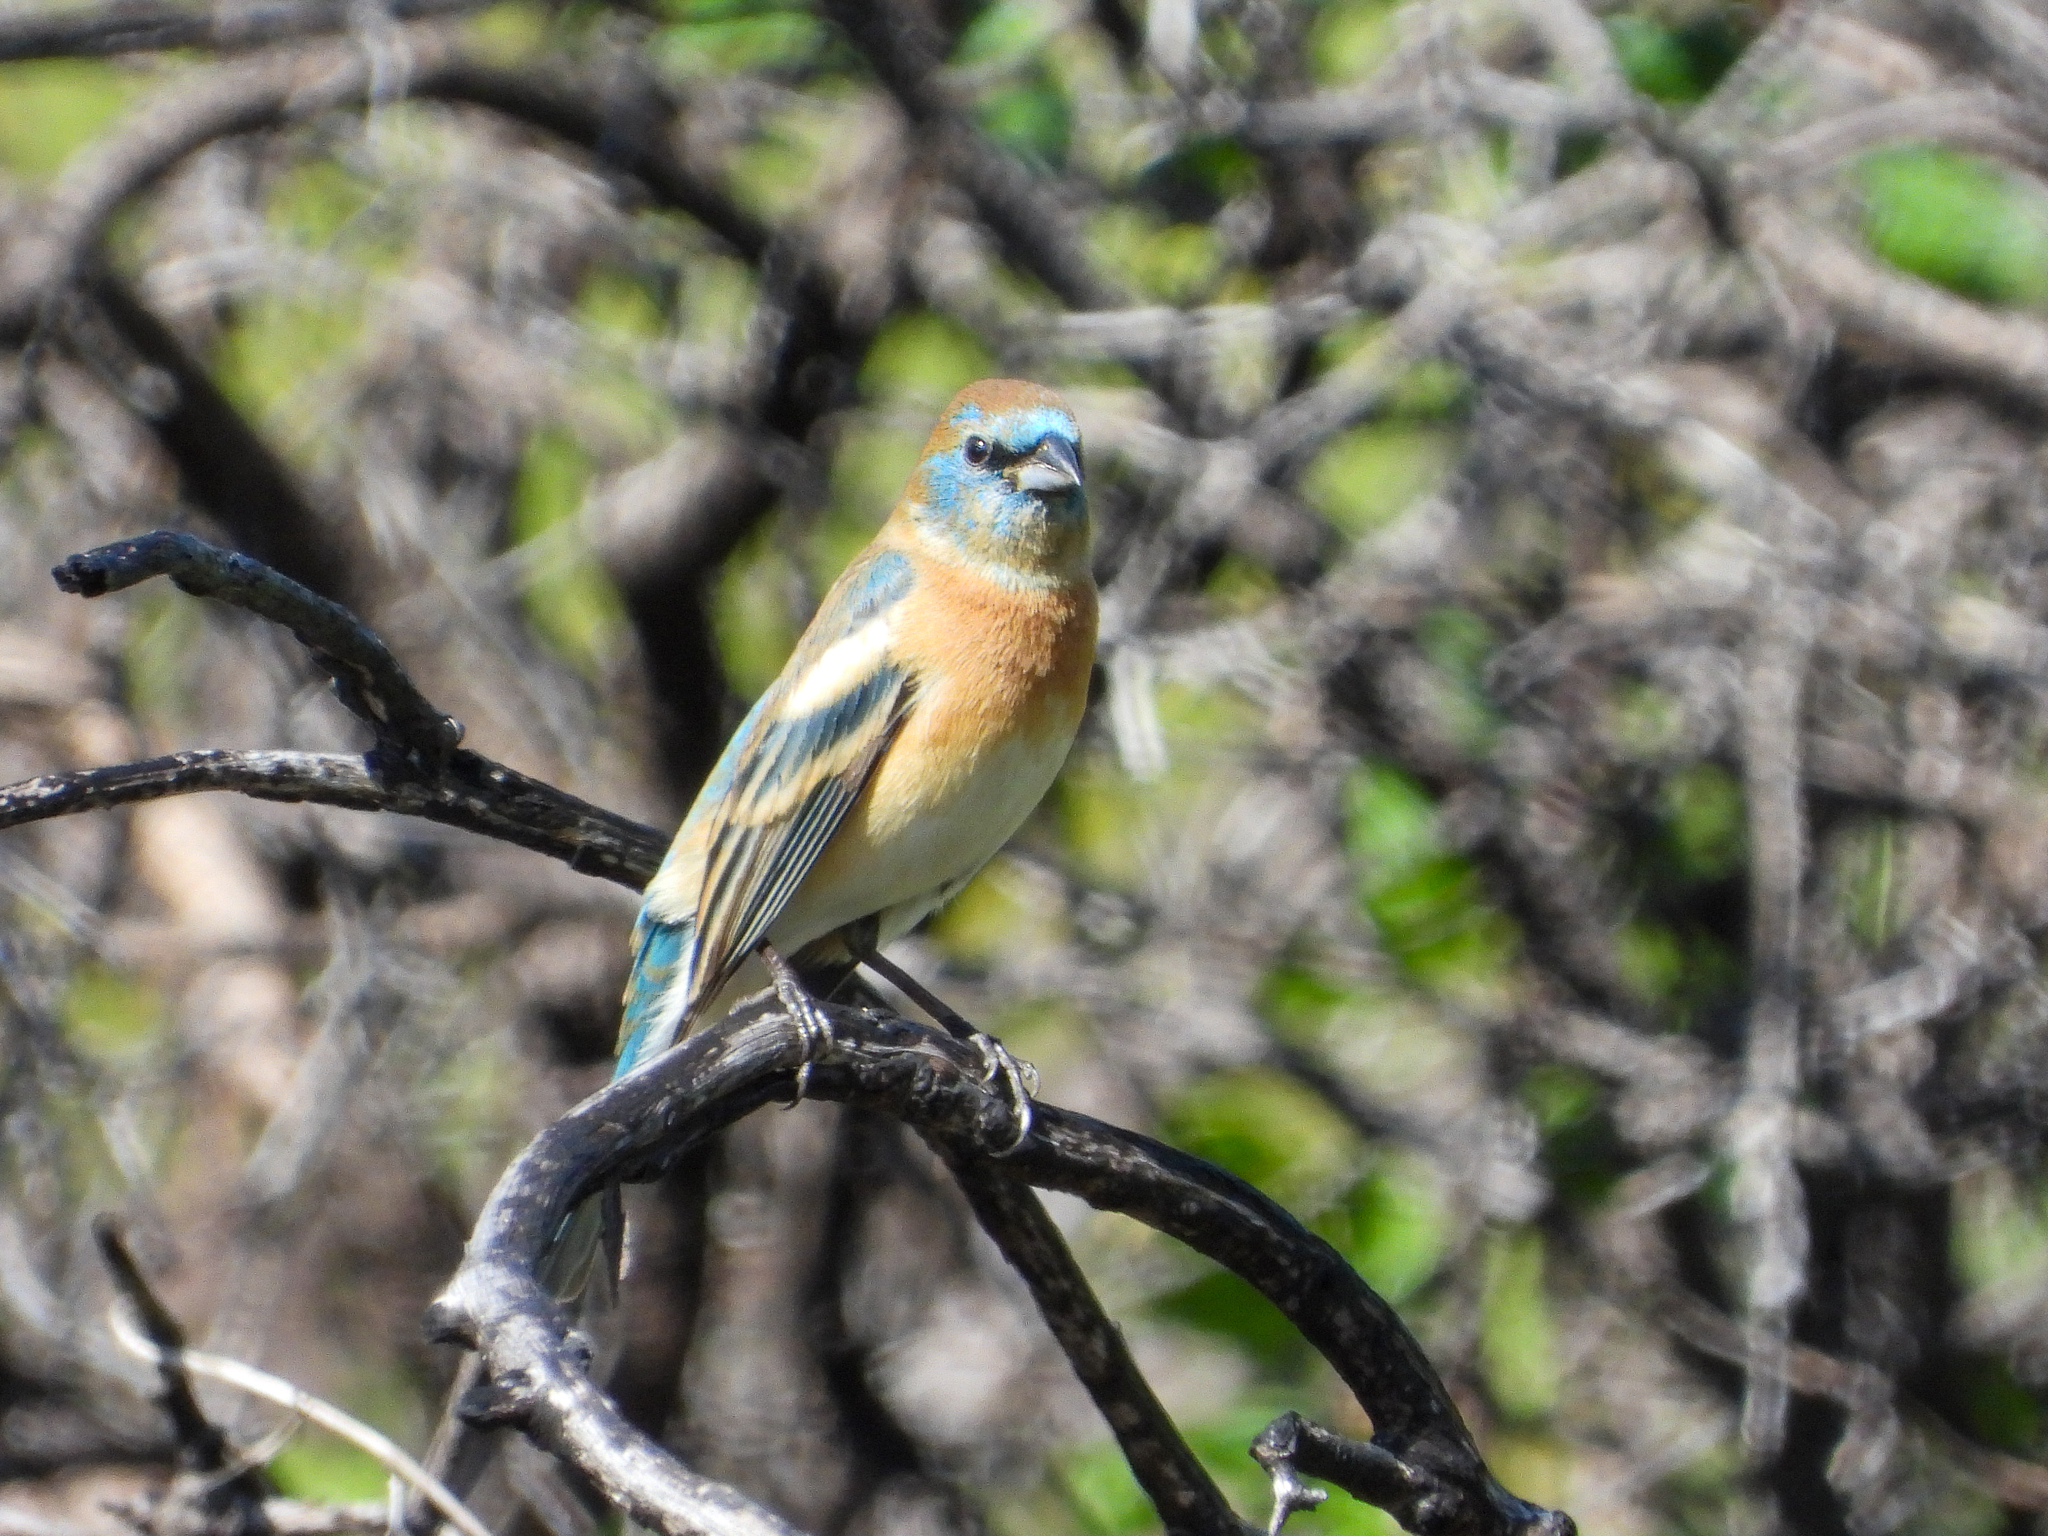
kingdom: Animalia
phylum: Chordata
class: Aves
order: Passeriformes
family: Cardinalidae
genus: Passerina
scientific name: Passerina amoena
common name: Lazuli bunting
